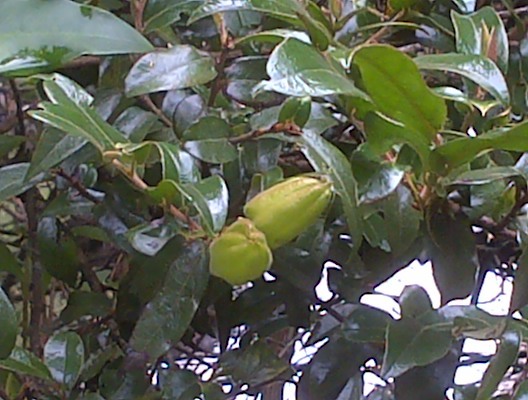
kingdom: Plantae
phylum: Tracheophyta
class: Magnoliopsida
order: Ericales
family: Ebenaceae
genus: Diospyros
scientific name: Diospyros whyteana
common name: Bladder-nut
